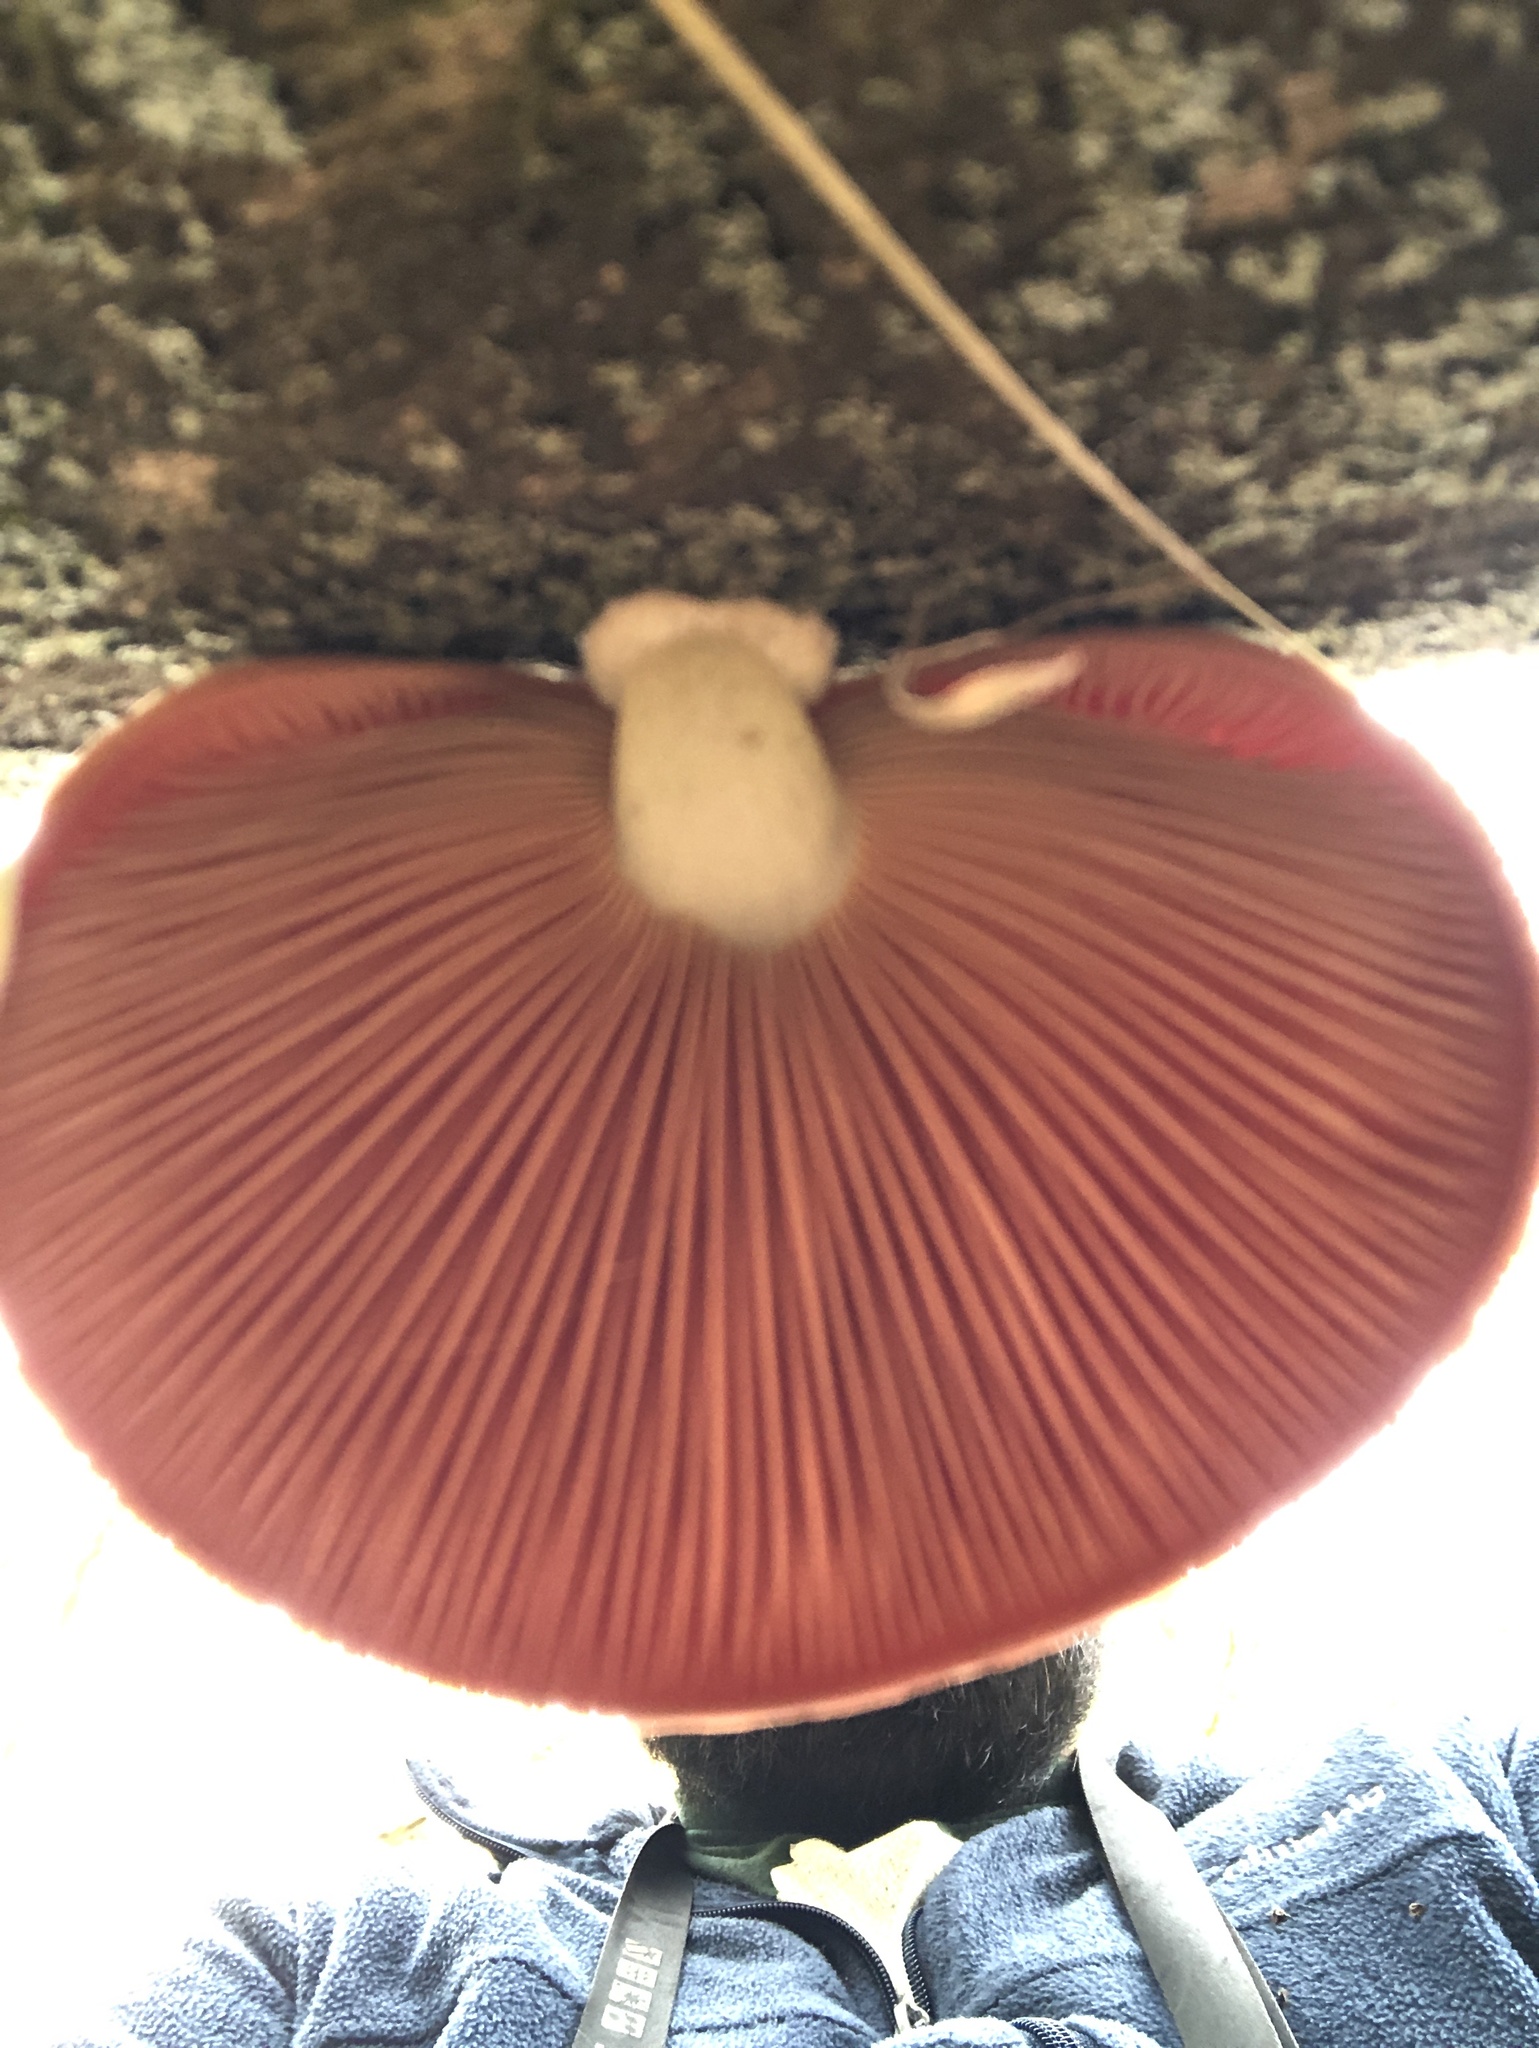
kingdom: Fungi
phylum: Basidiomycota
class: Agaricomycetes
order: Agaricales
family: Physalacriaceae
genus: Rhodotus
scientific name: Rhodotus palmatus
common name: Wrinkled peach
